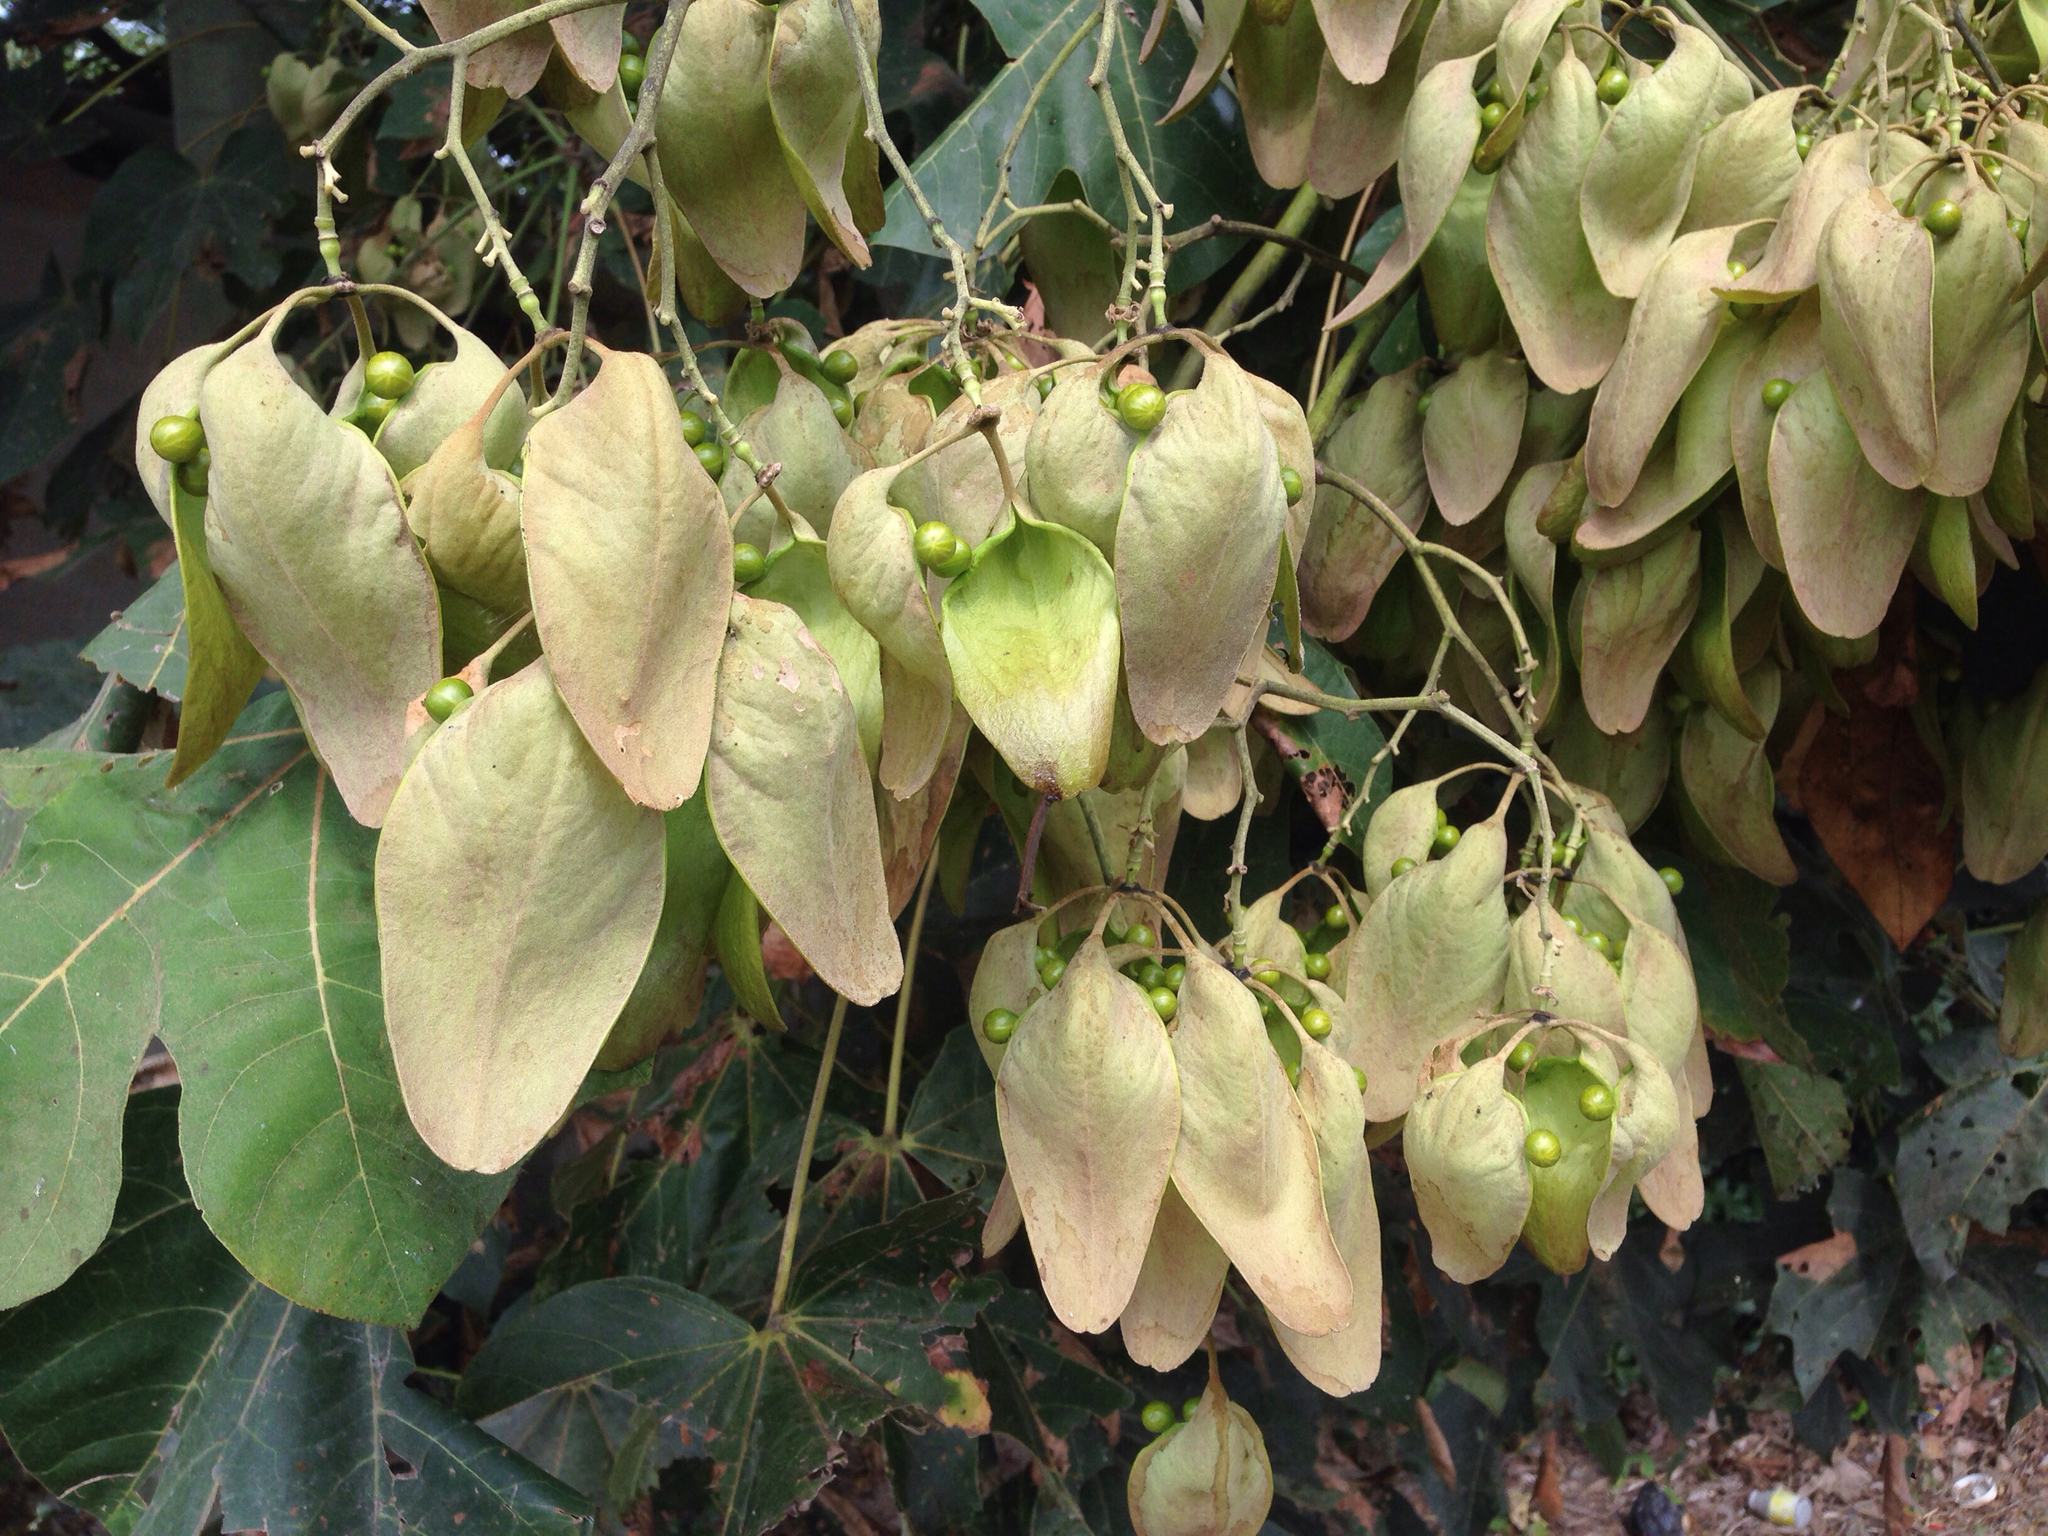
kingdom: Plantae
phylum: Tracheophyta
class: Magnoliopsida
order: Malvales
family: Malvaceae
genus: Firmiana
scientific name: Firmiana simplex
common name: Chinese parasoltree
